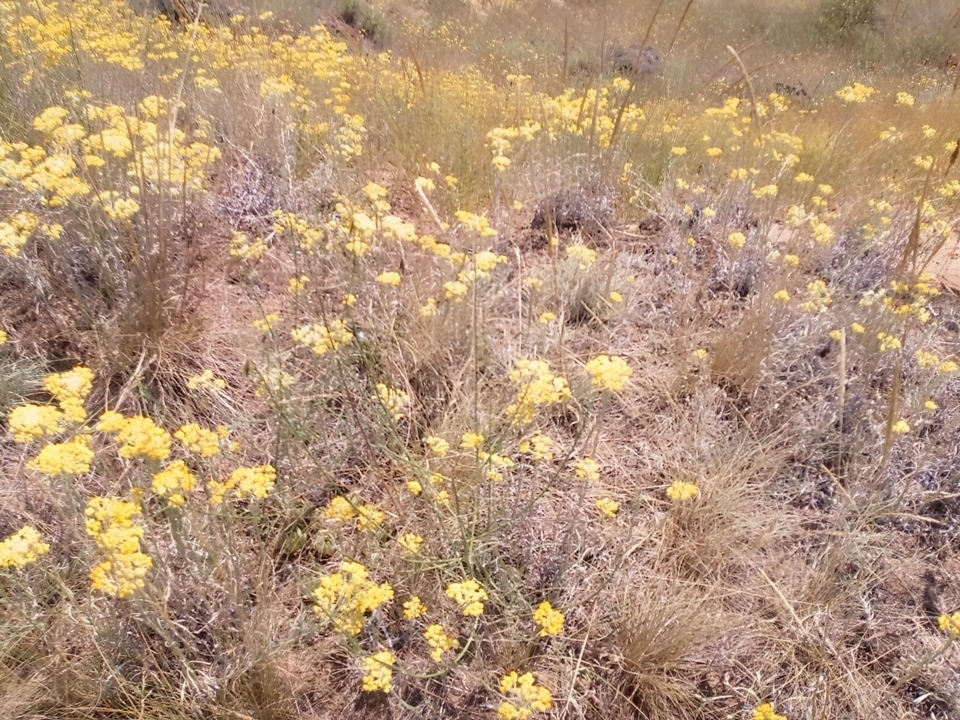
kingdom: Plantae
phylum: Tracheophyta
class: Magnoliopsida
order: Asterales
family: Asteraceae
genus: Helichrysum
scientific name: Helichrysum arenarium
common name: Strawflower
